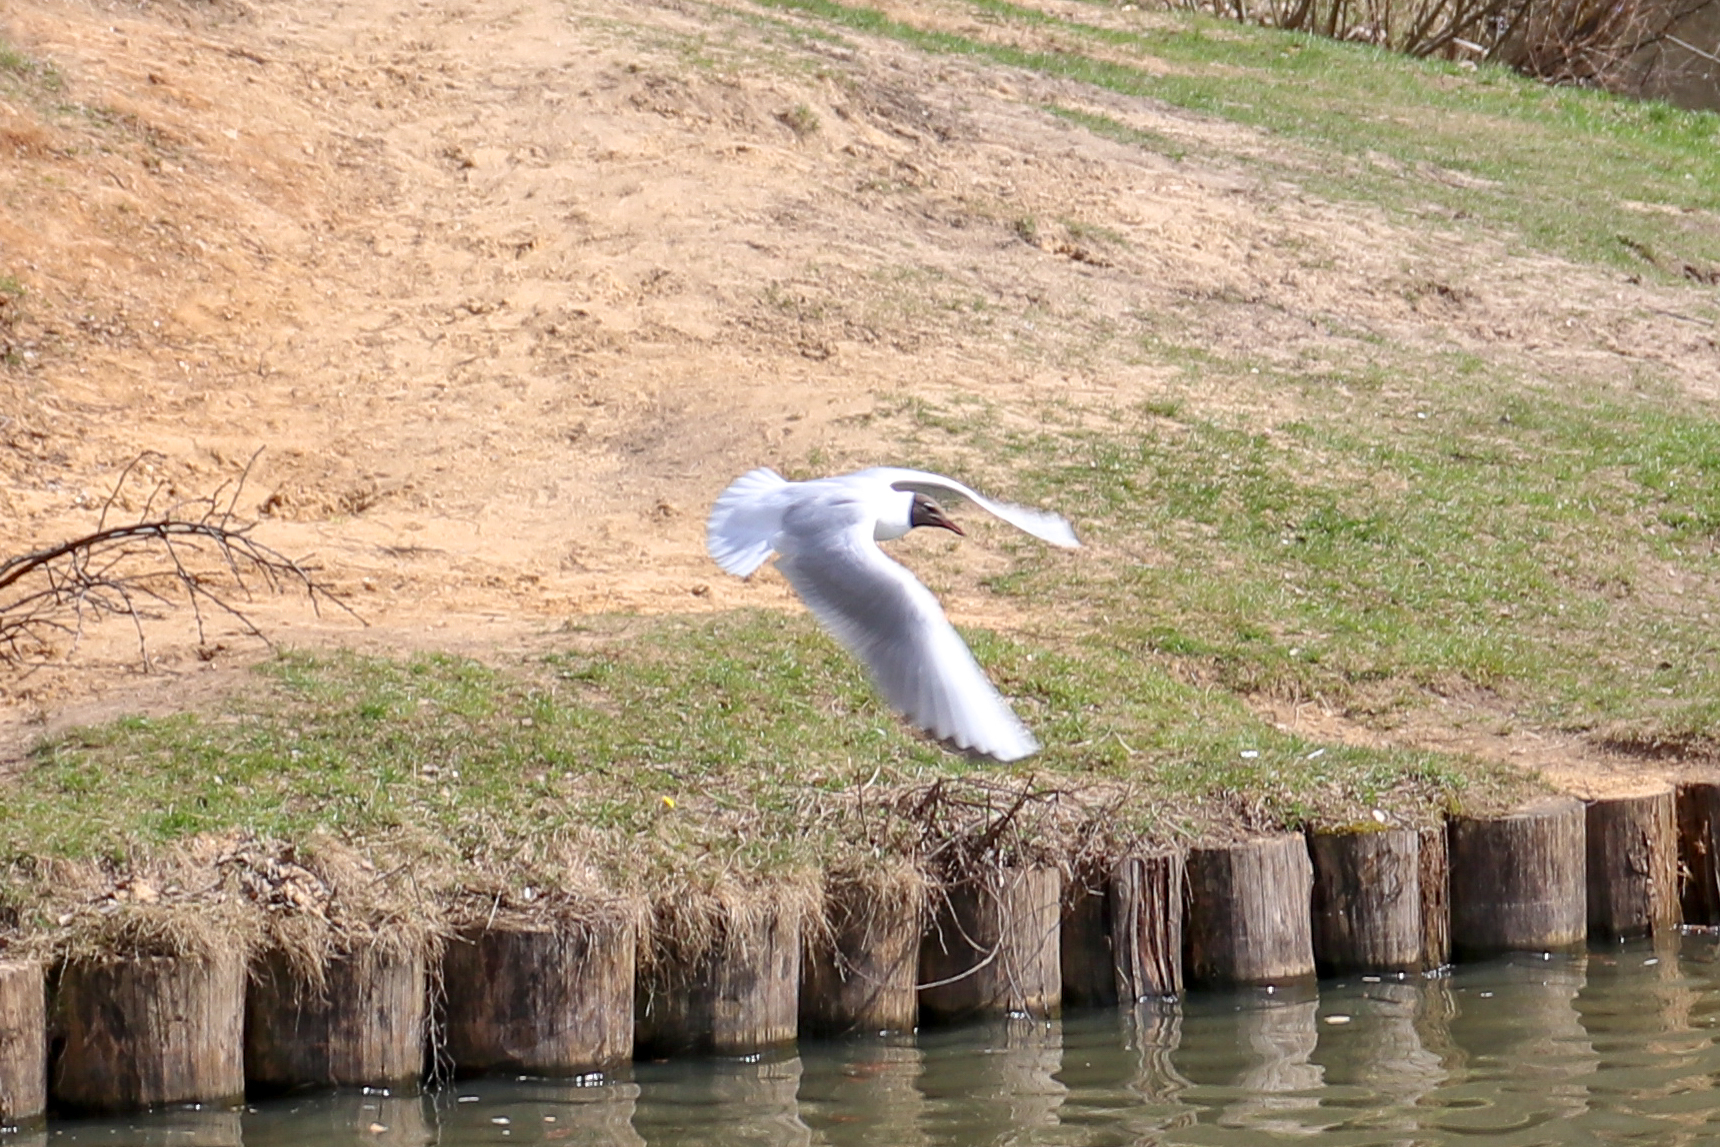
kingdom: Animalia
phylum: Chordata
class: Aves
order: Charadriiformes
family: Laridae
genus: Chroicocephalus
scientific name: Chroicocephalus ridibundus
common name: Black-headed gull
